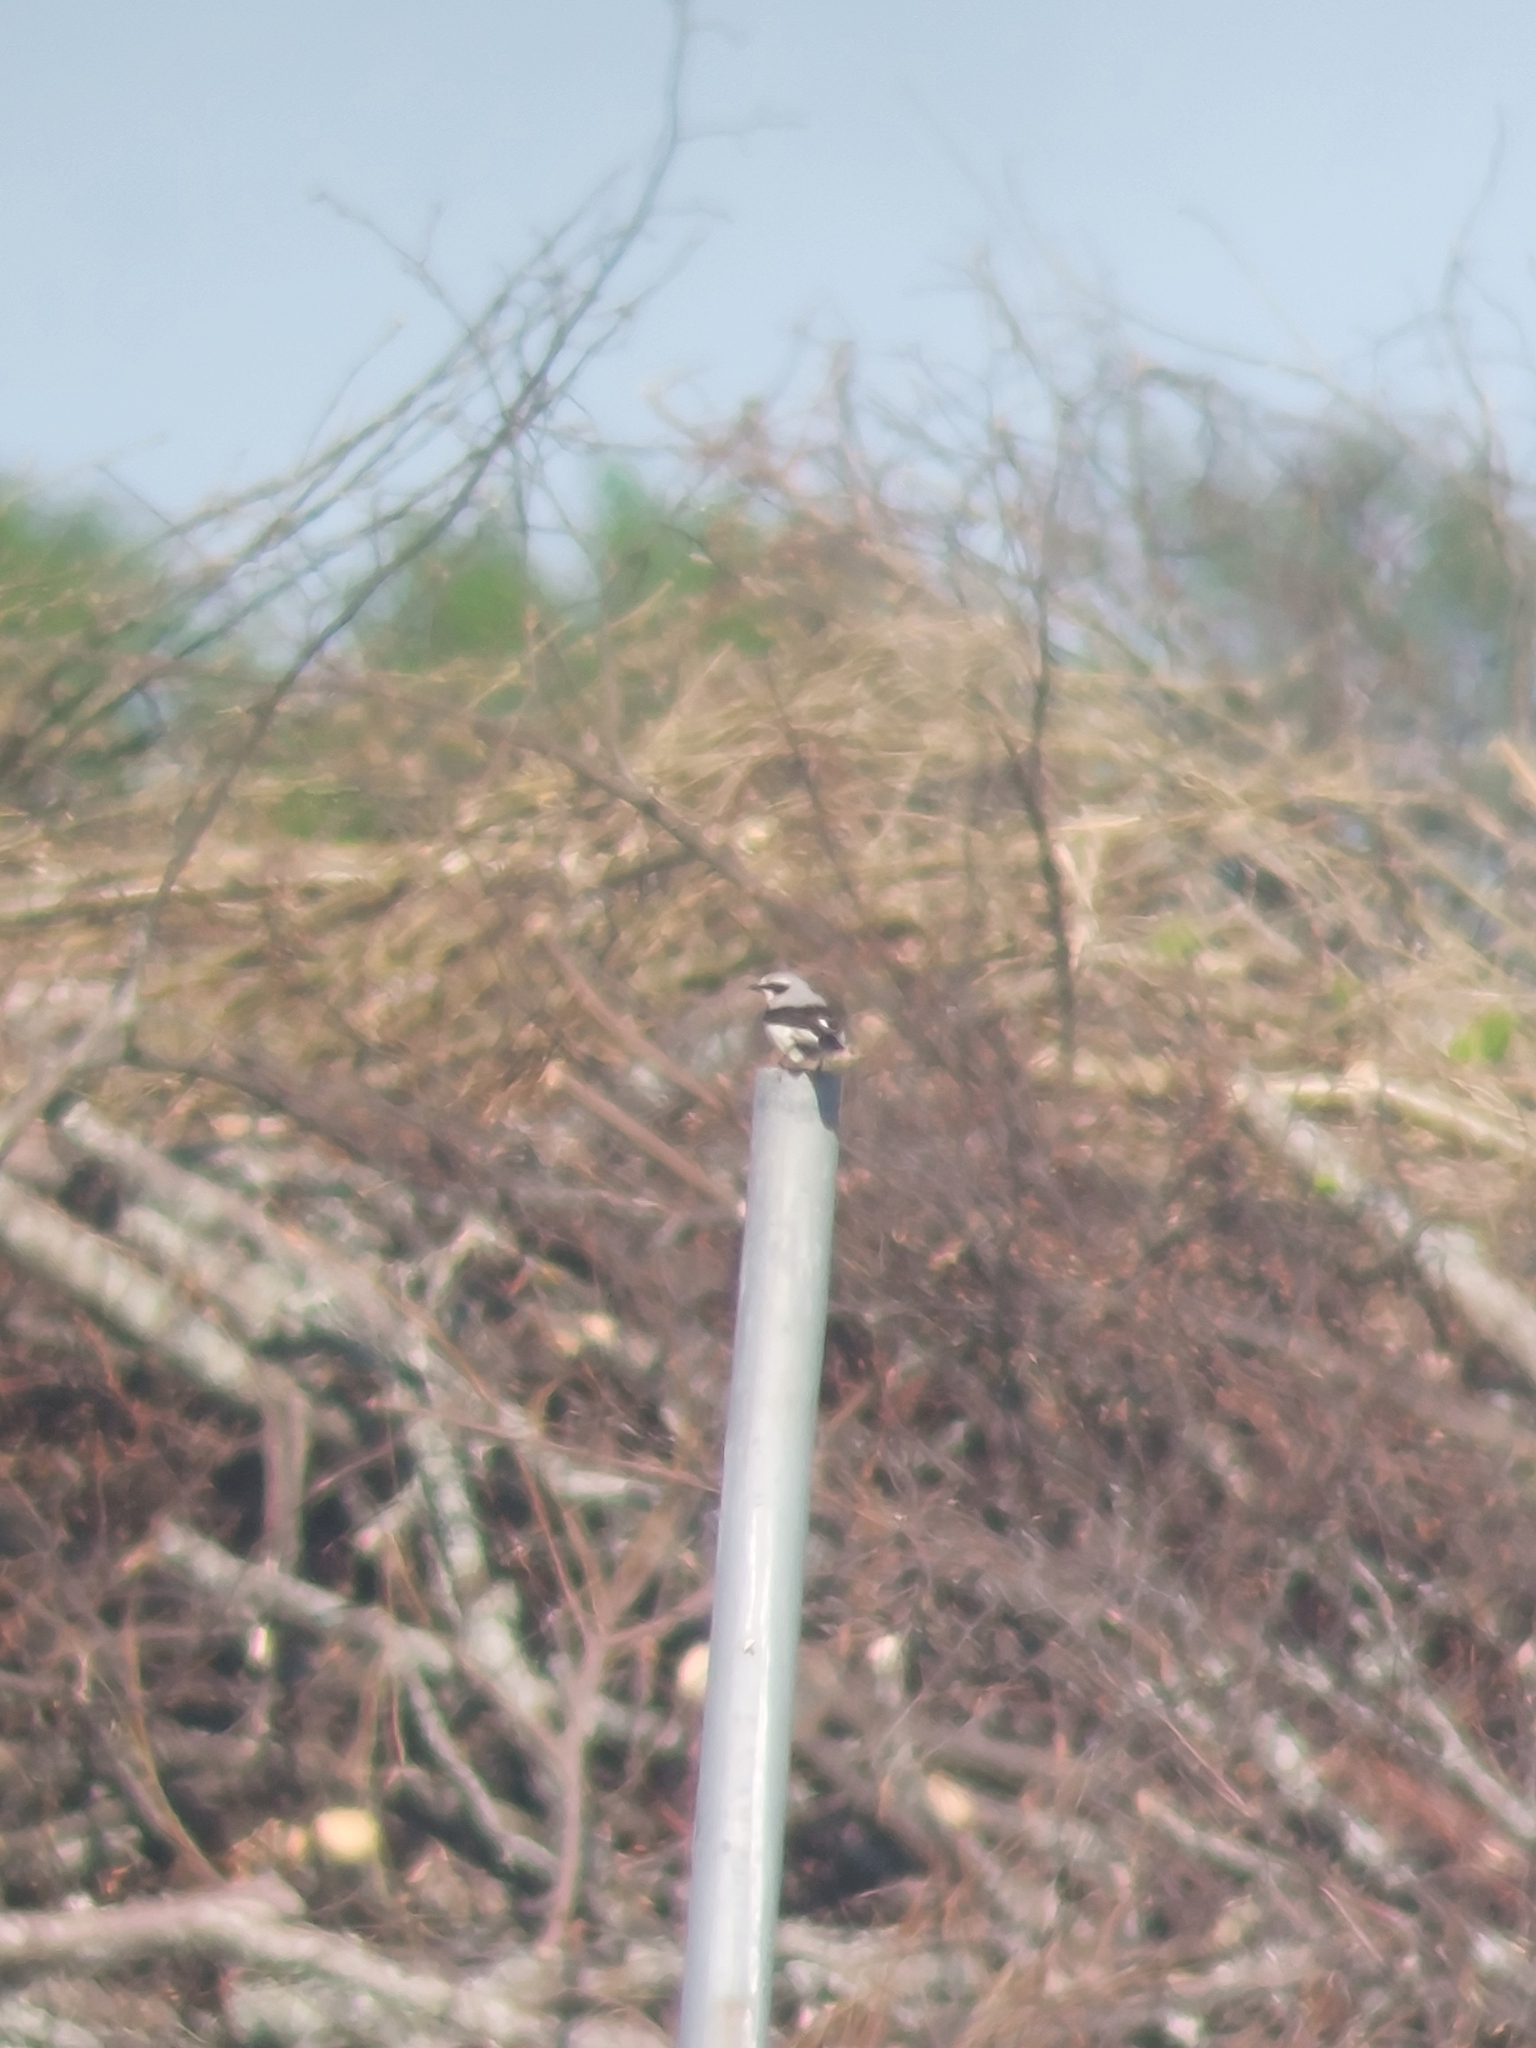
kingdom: Animalia
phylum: Chordata
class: Aves
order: Passeriformes
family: Muscicapidae
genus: Oenanthe
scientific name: Oenanthe oenanthe
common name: Northern wheatear
